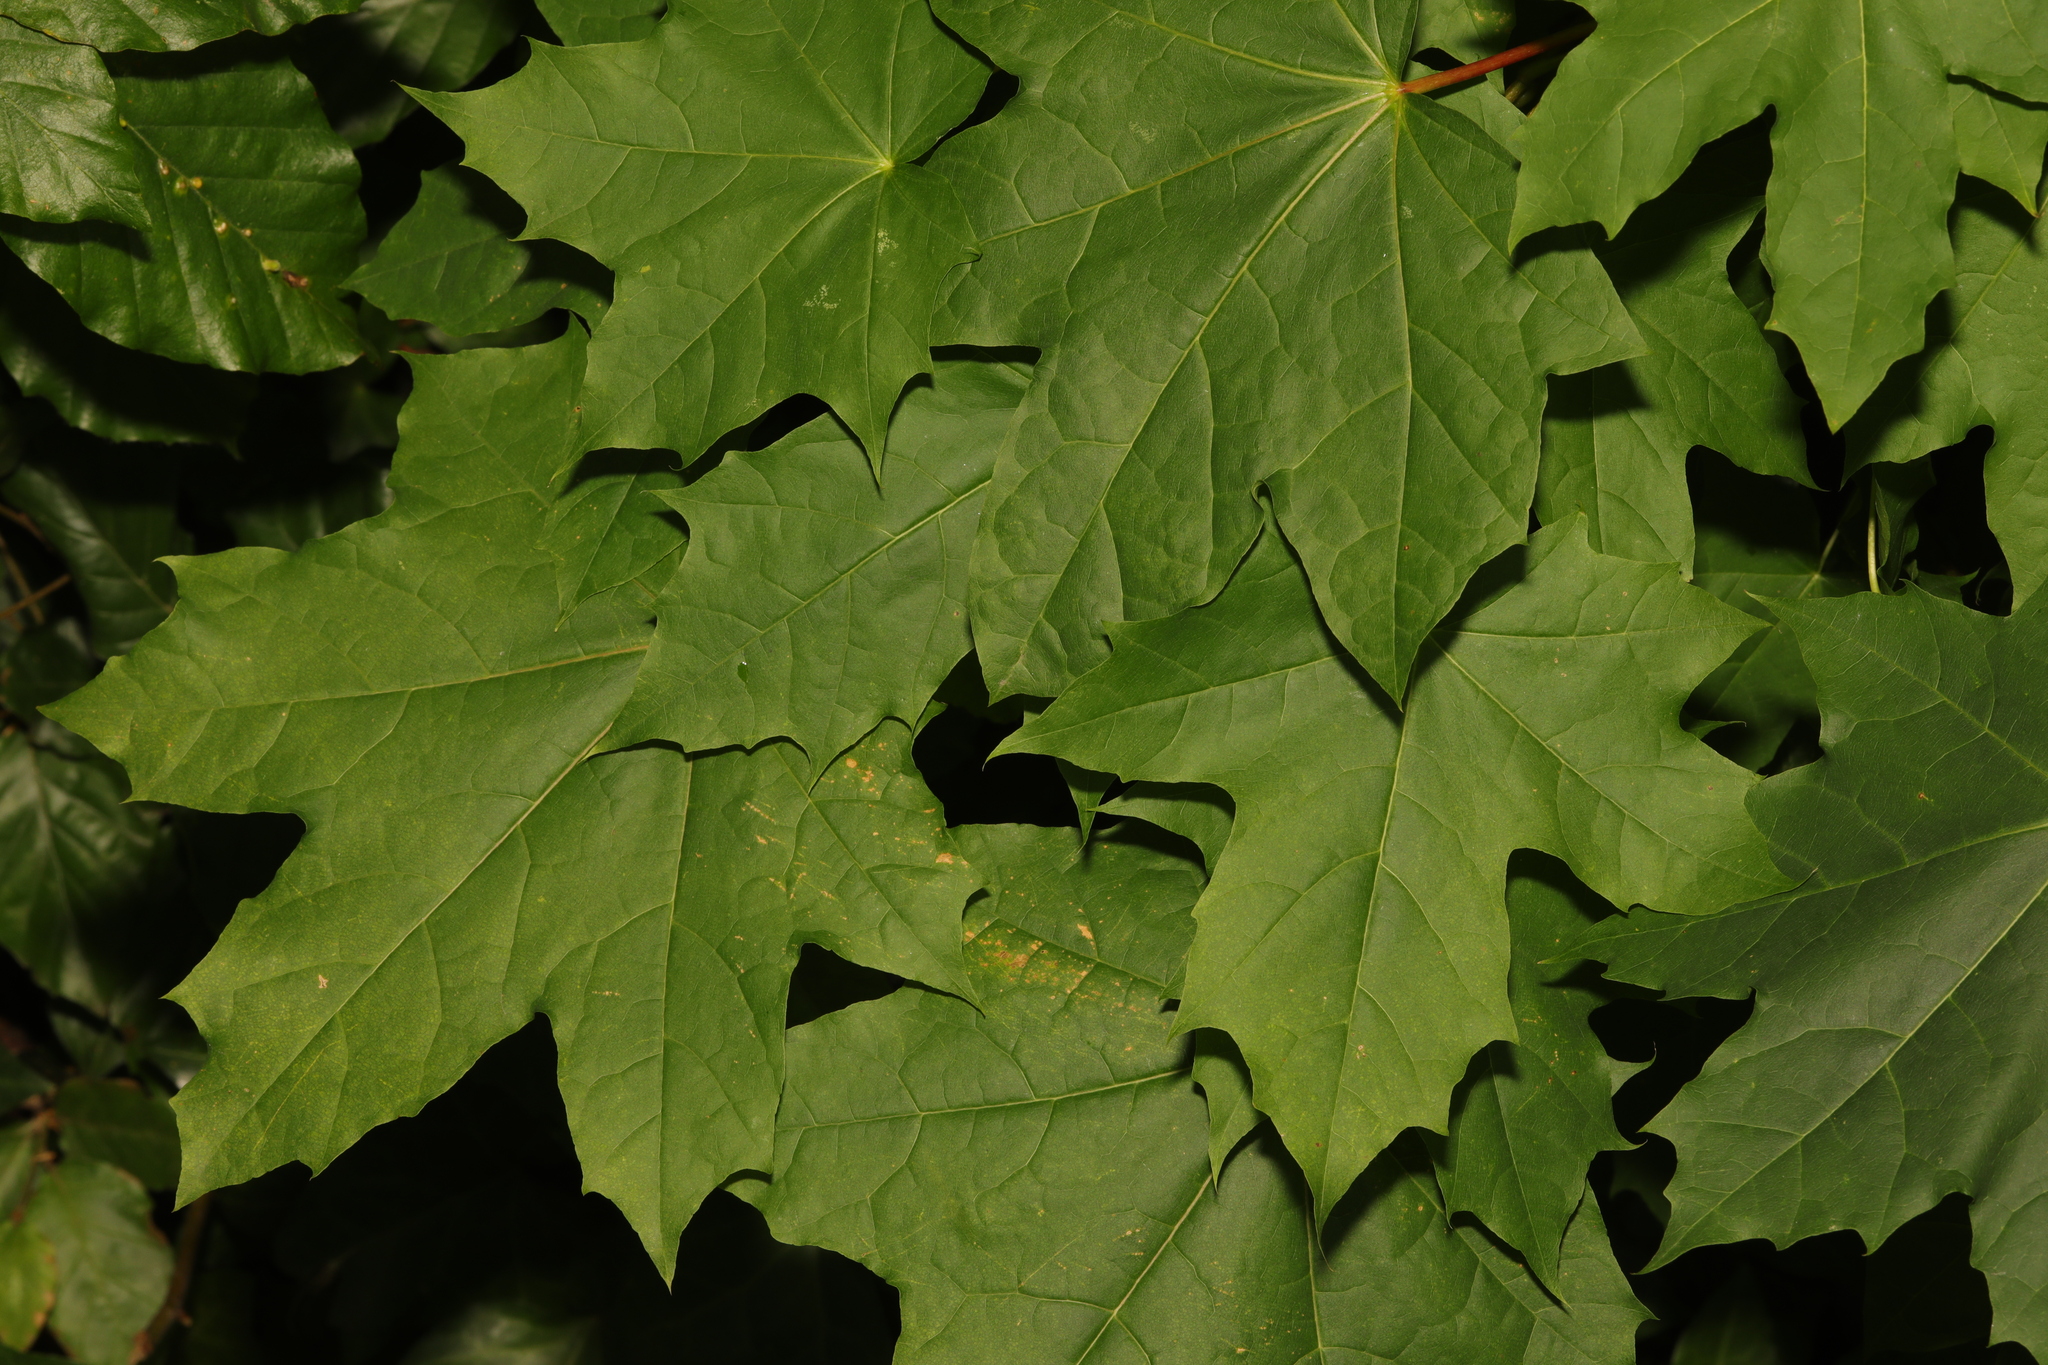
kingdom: Plantae
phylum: Tracheophyta
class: Magnoliopsida
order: Sapindales
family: Sapindaceae
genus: Acer
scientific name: Acer platanoides
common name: Norway maple
